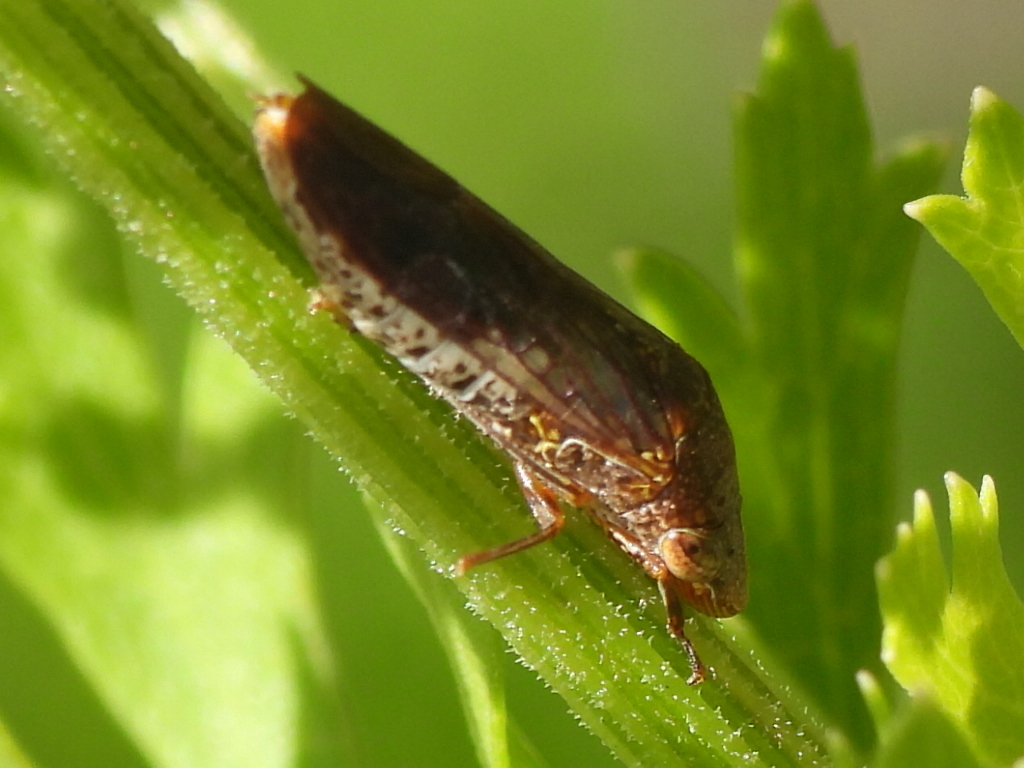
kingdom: Animalia
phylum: Arthropoda
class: Insecta
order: Hemiptera
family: Cicadellidae
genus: Homalodisca
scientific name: Homalodisca vitripennis
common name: Glassy-winged sharpshooter
